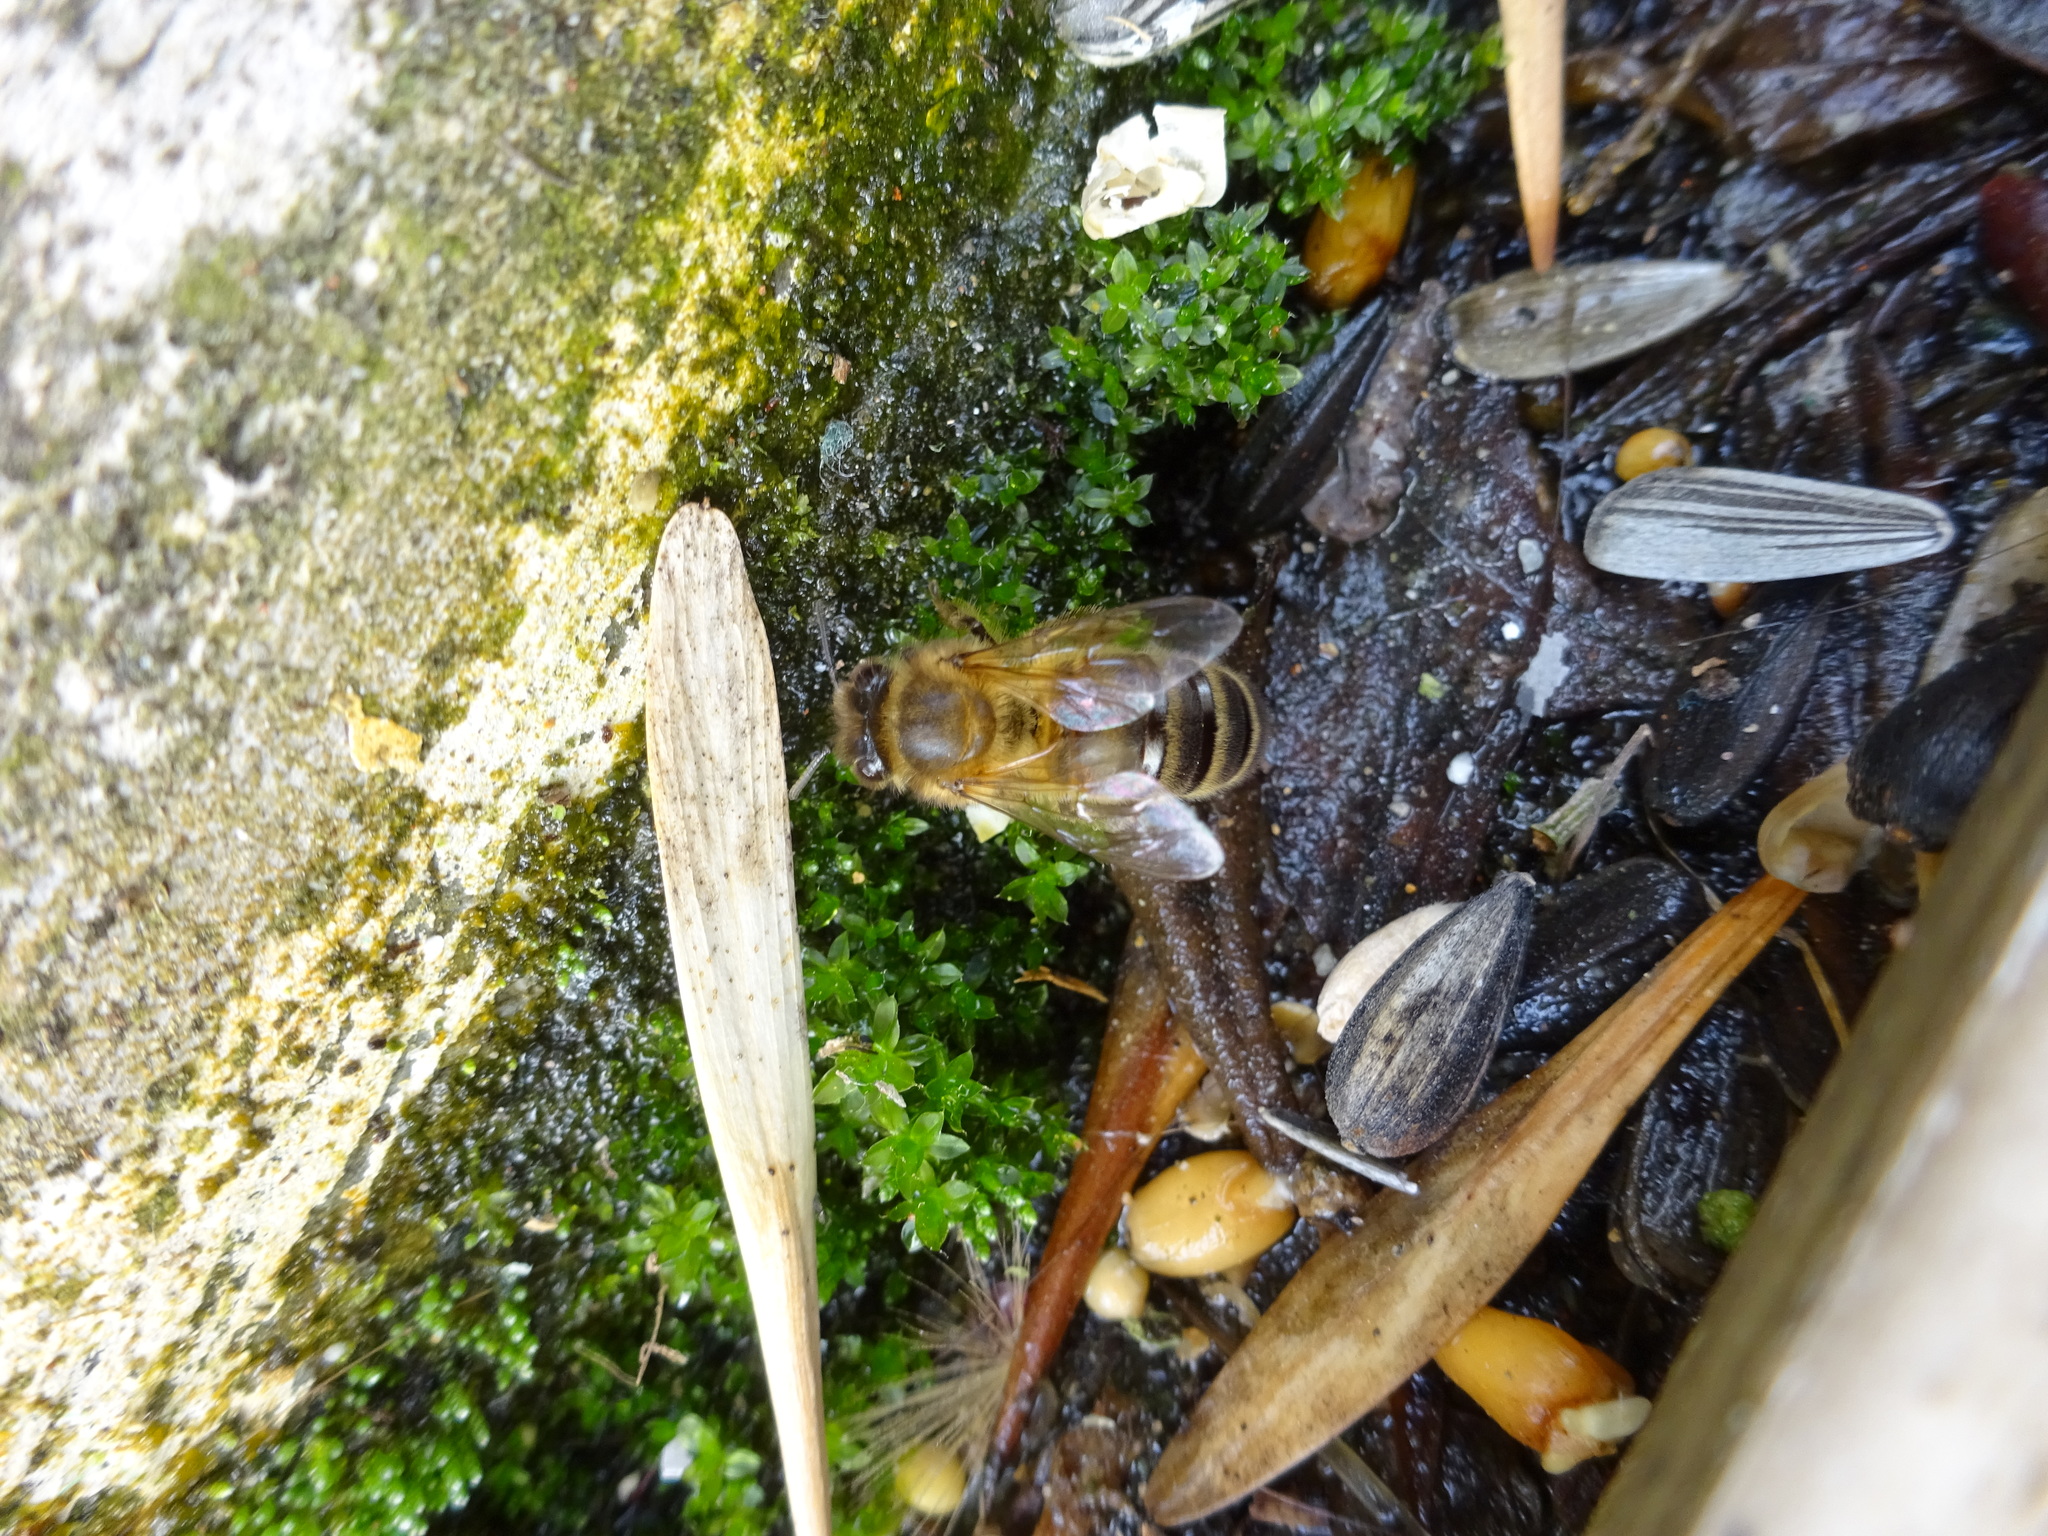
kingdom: Animalia
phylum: Arthropoda
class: Insecta
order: Hymenoptera
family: Apidae
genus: Apis
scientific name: Apis mellifera
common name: Honey bee
